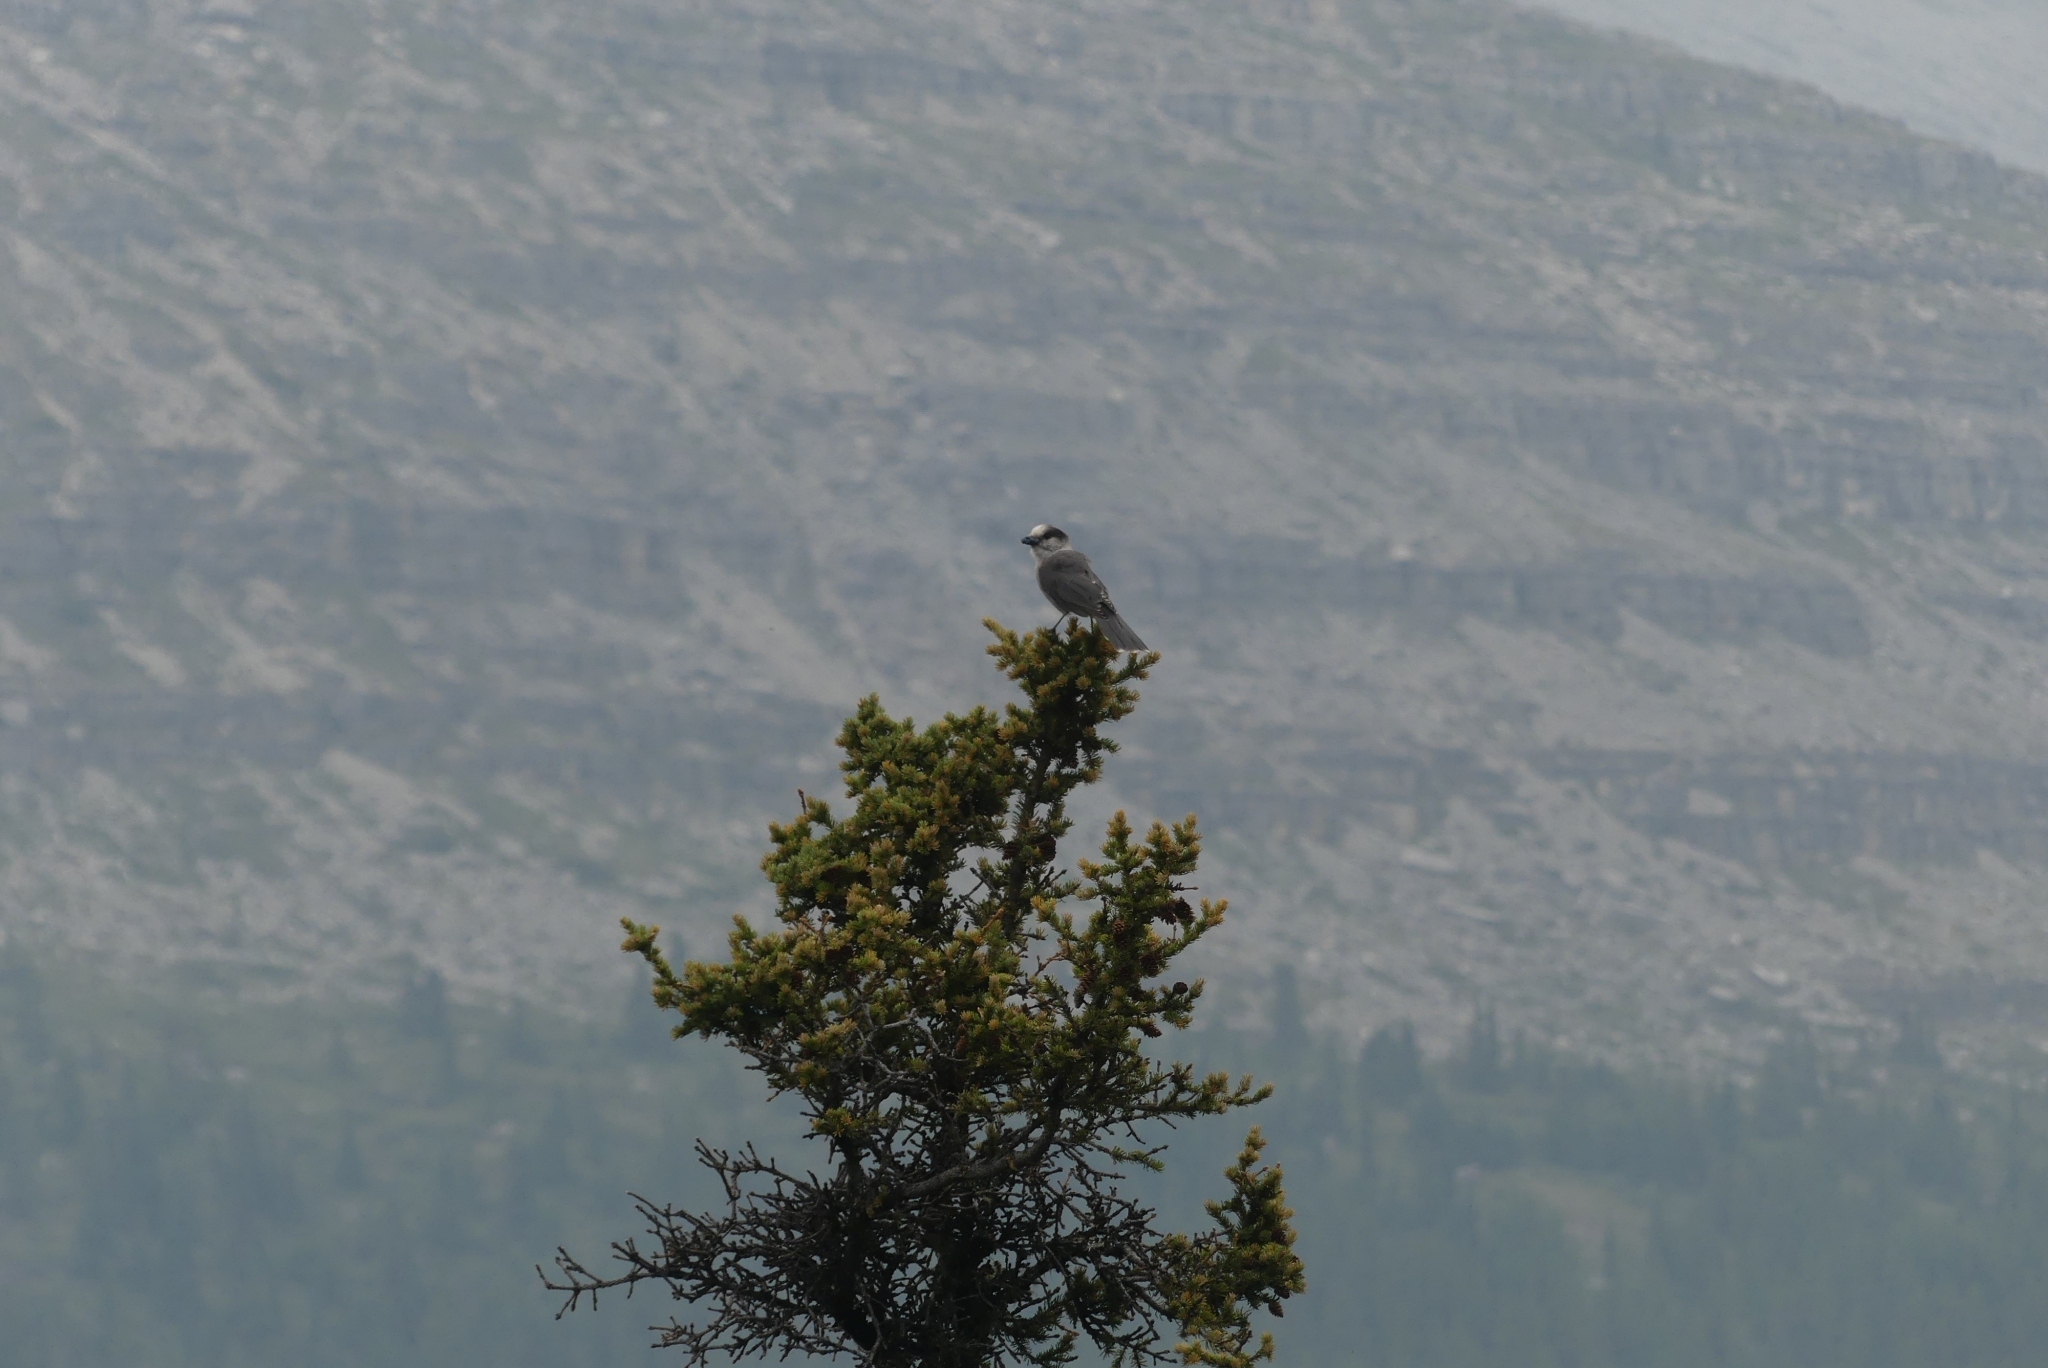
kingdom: Animalia
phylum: Chordata
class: Aves
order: Passeriformes
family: Corvidae
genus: Perisoreus
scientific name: Perisoreus canadensis
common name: Gray jay
